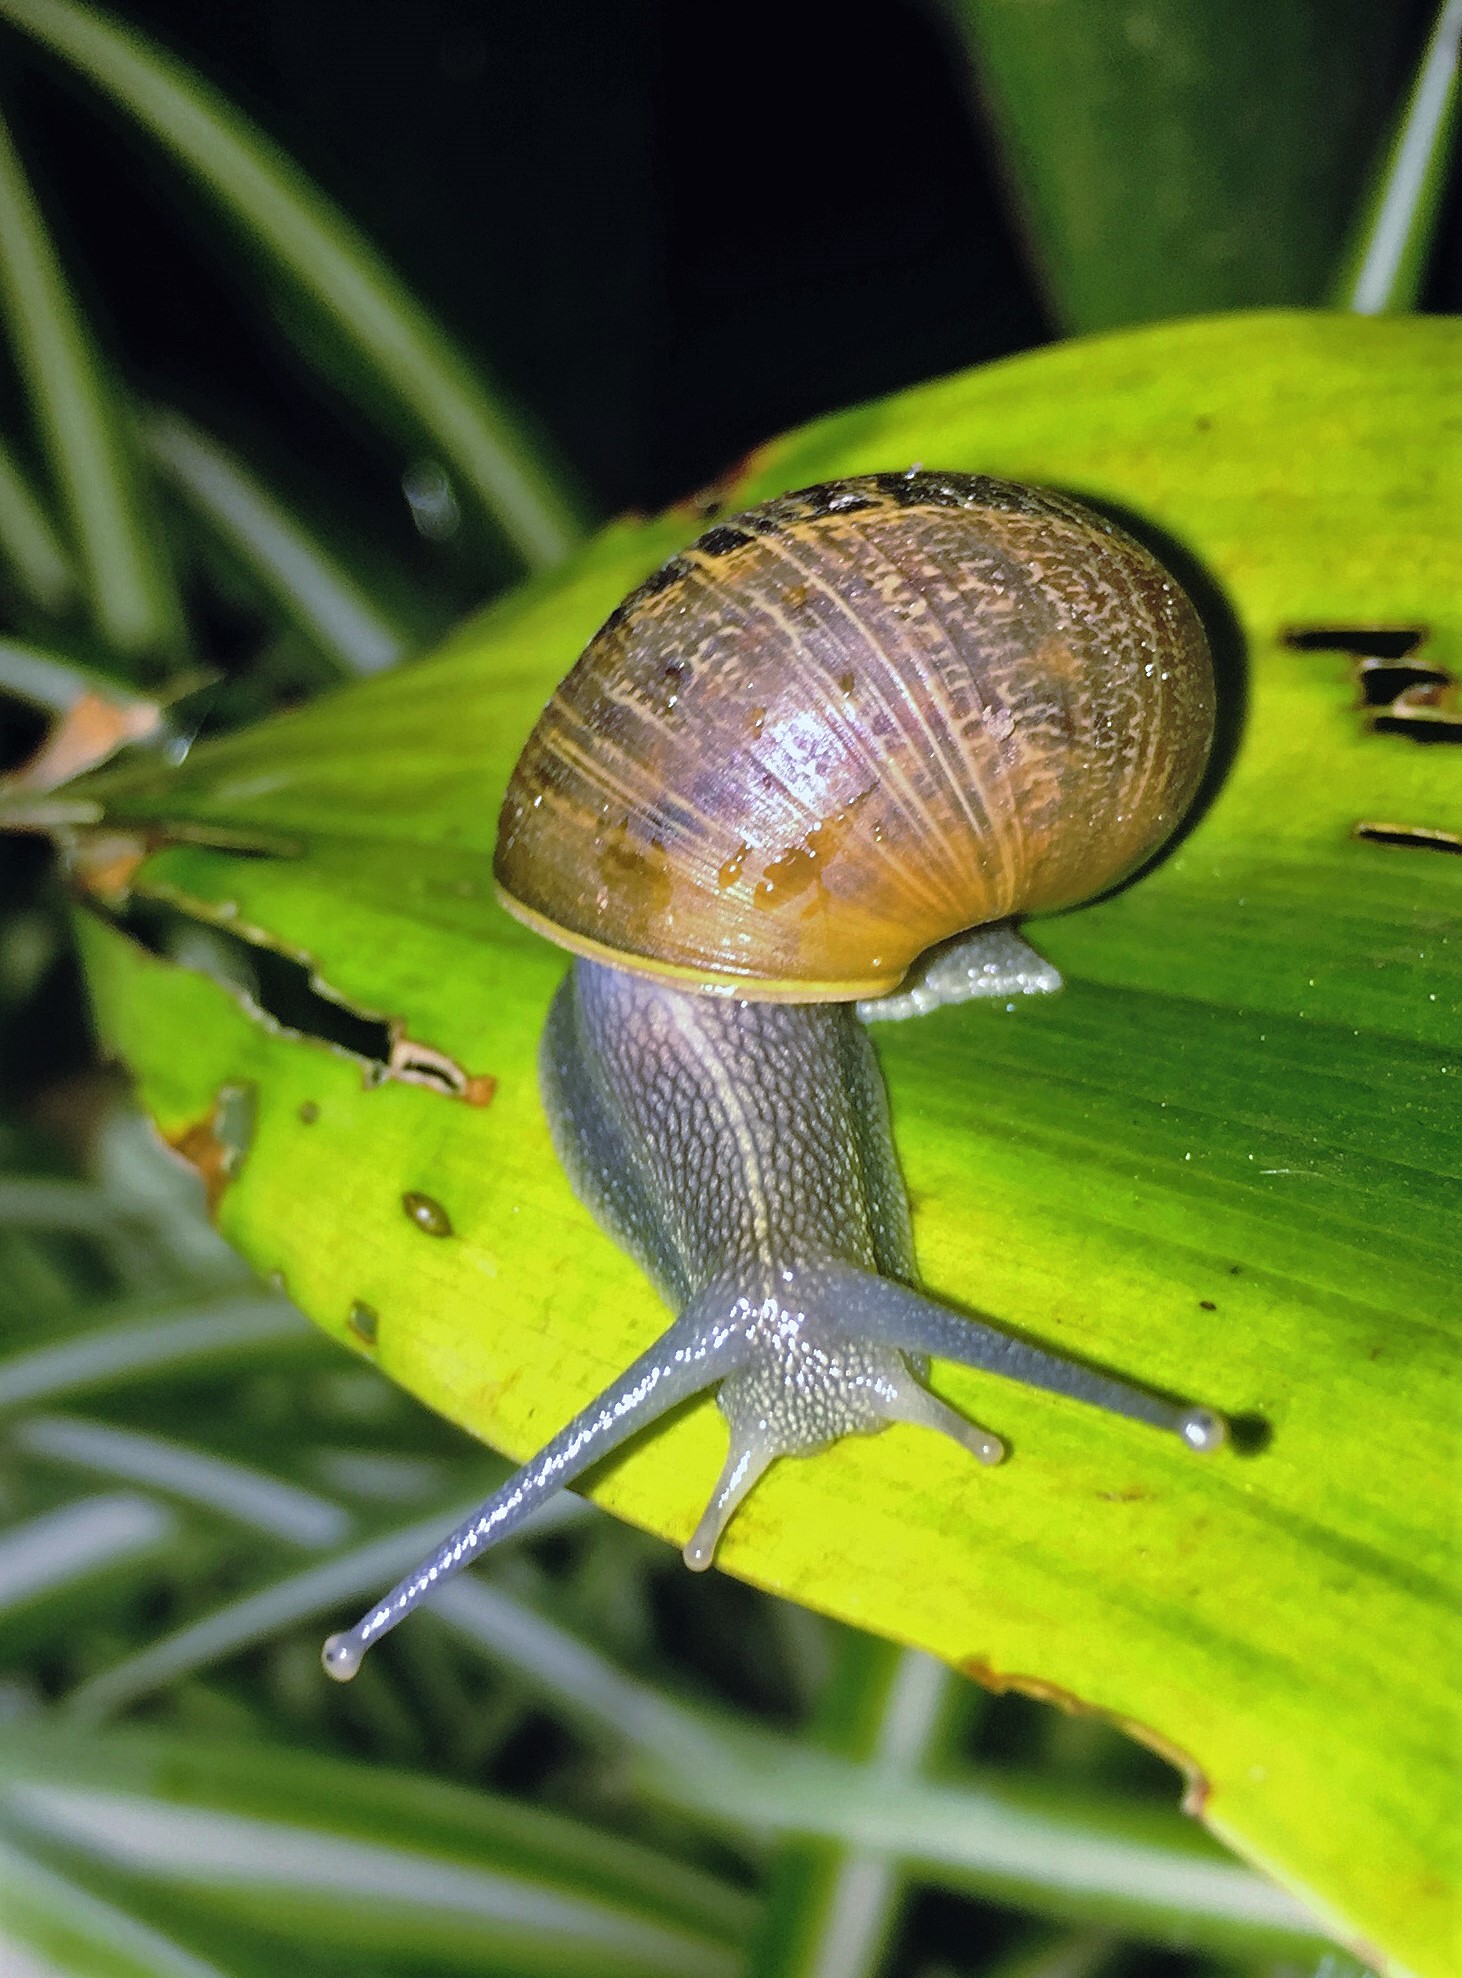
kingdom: Animalia
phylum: Mollusca
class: Gastropoda
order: Stylommatophora
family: Helicidae
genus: Cornu
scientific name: Cornu aspersum
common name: Brown garden snail
